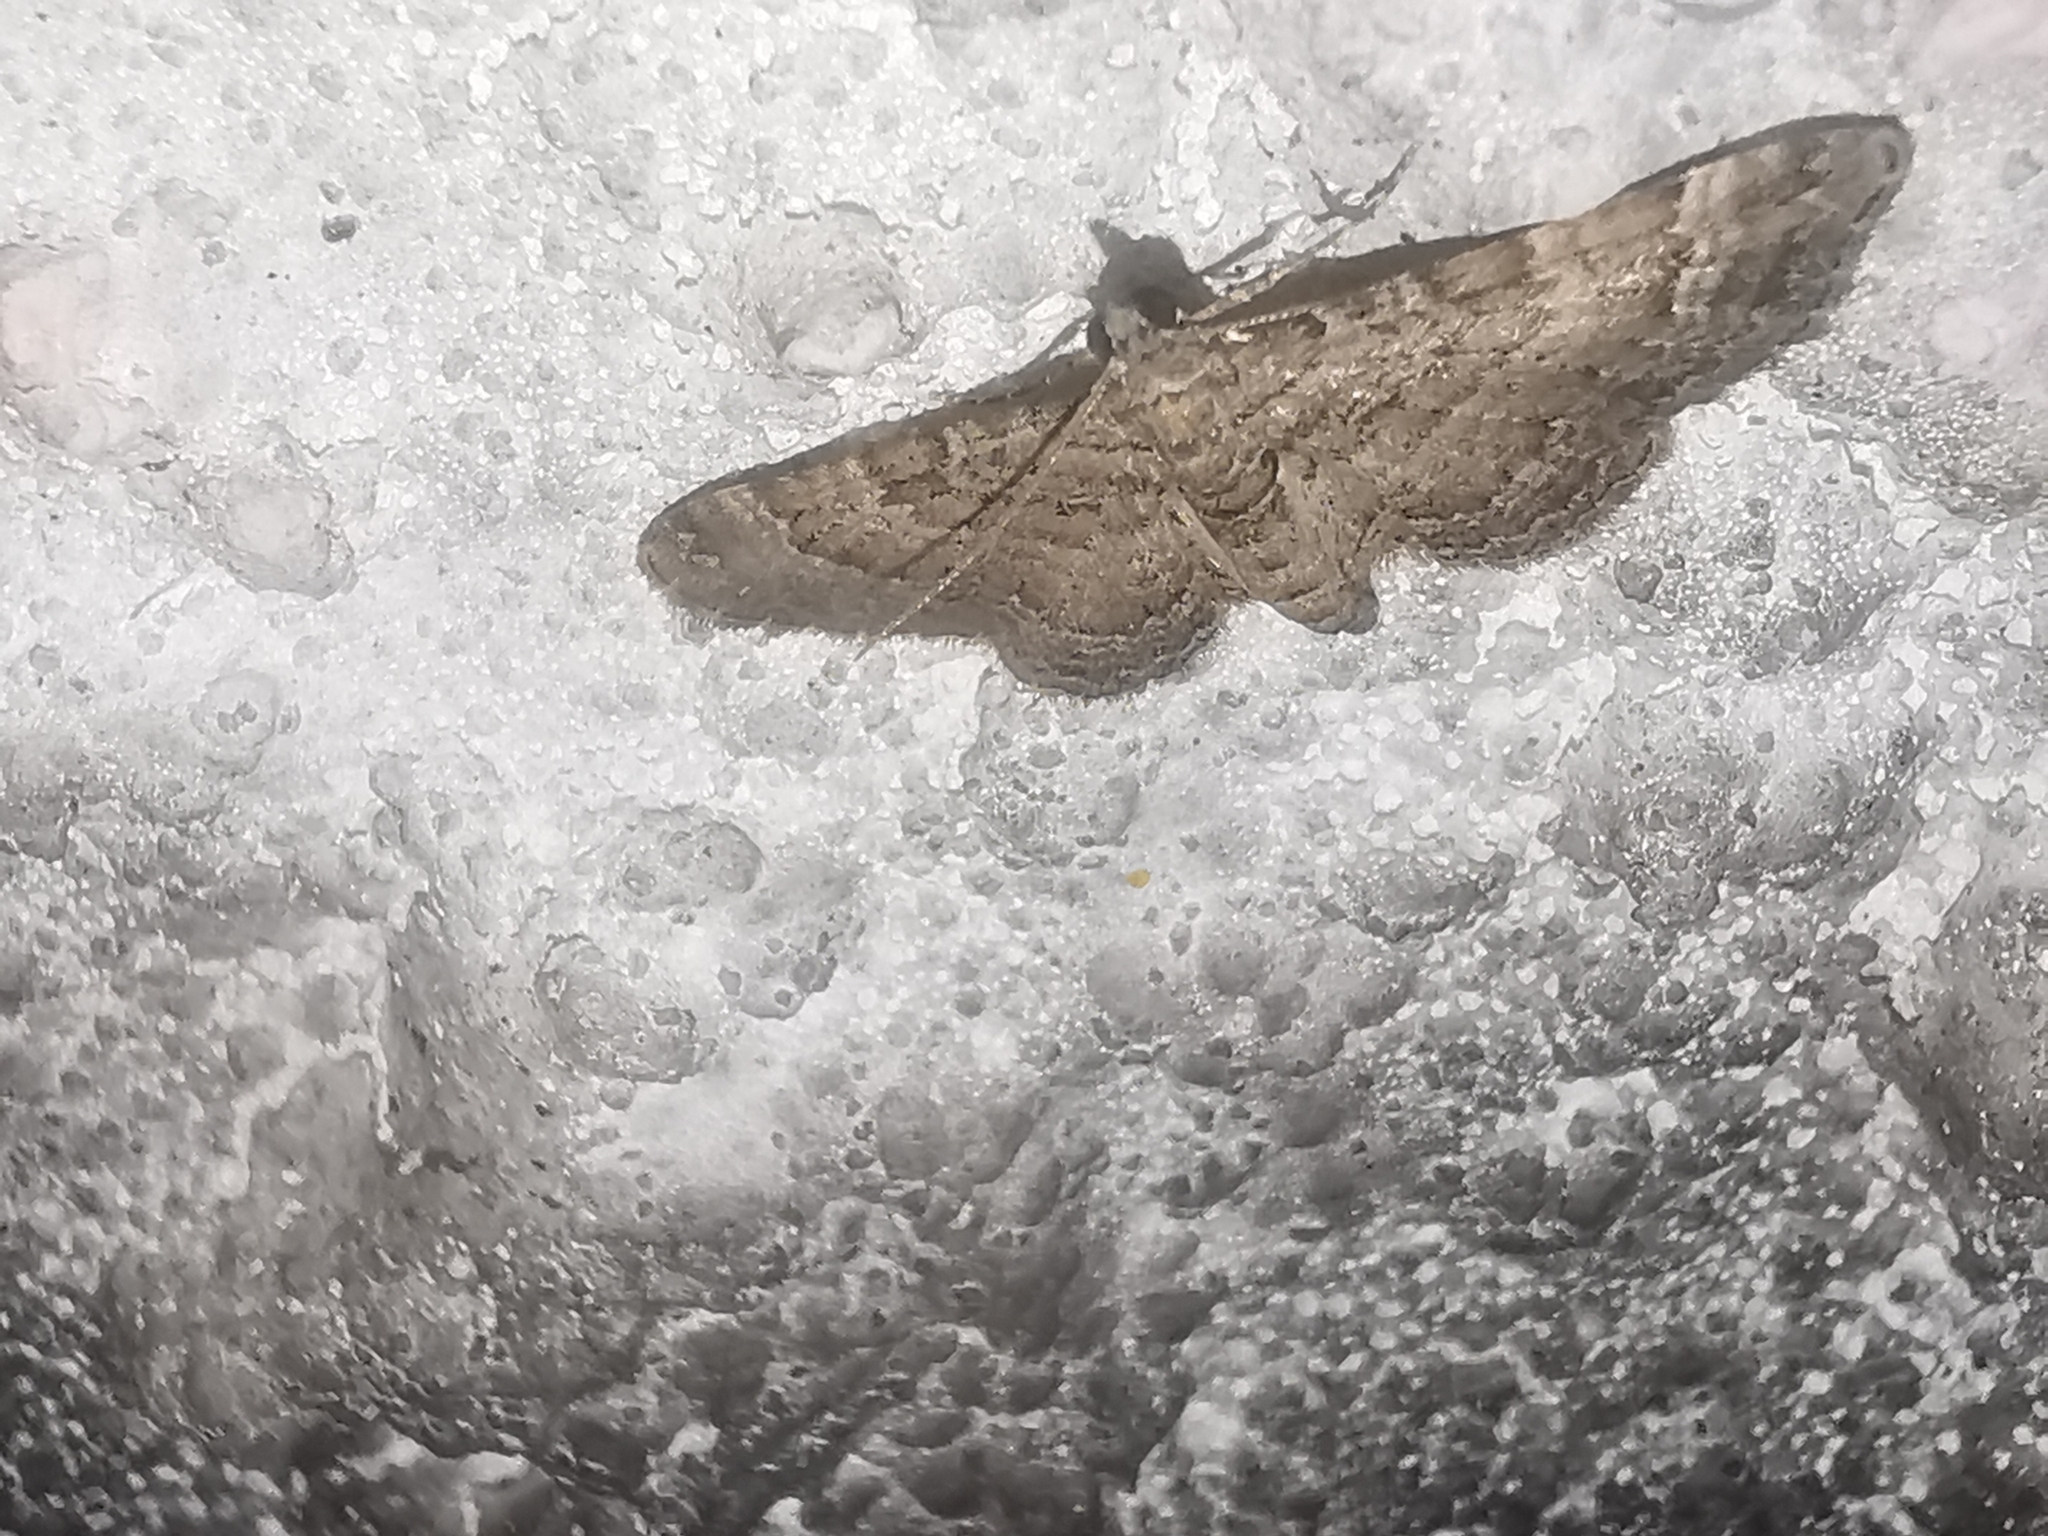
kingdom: Animalia
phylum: Arthropoda
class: Insecta
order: Lepidoptera
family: Geometridae
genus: Gymnoscelis
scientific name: Gymnoscelis rufifasciata
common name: Double-striped pug
